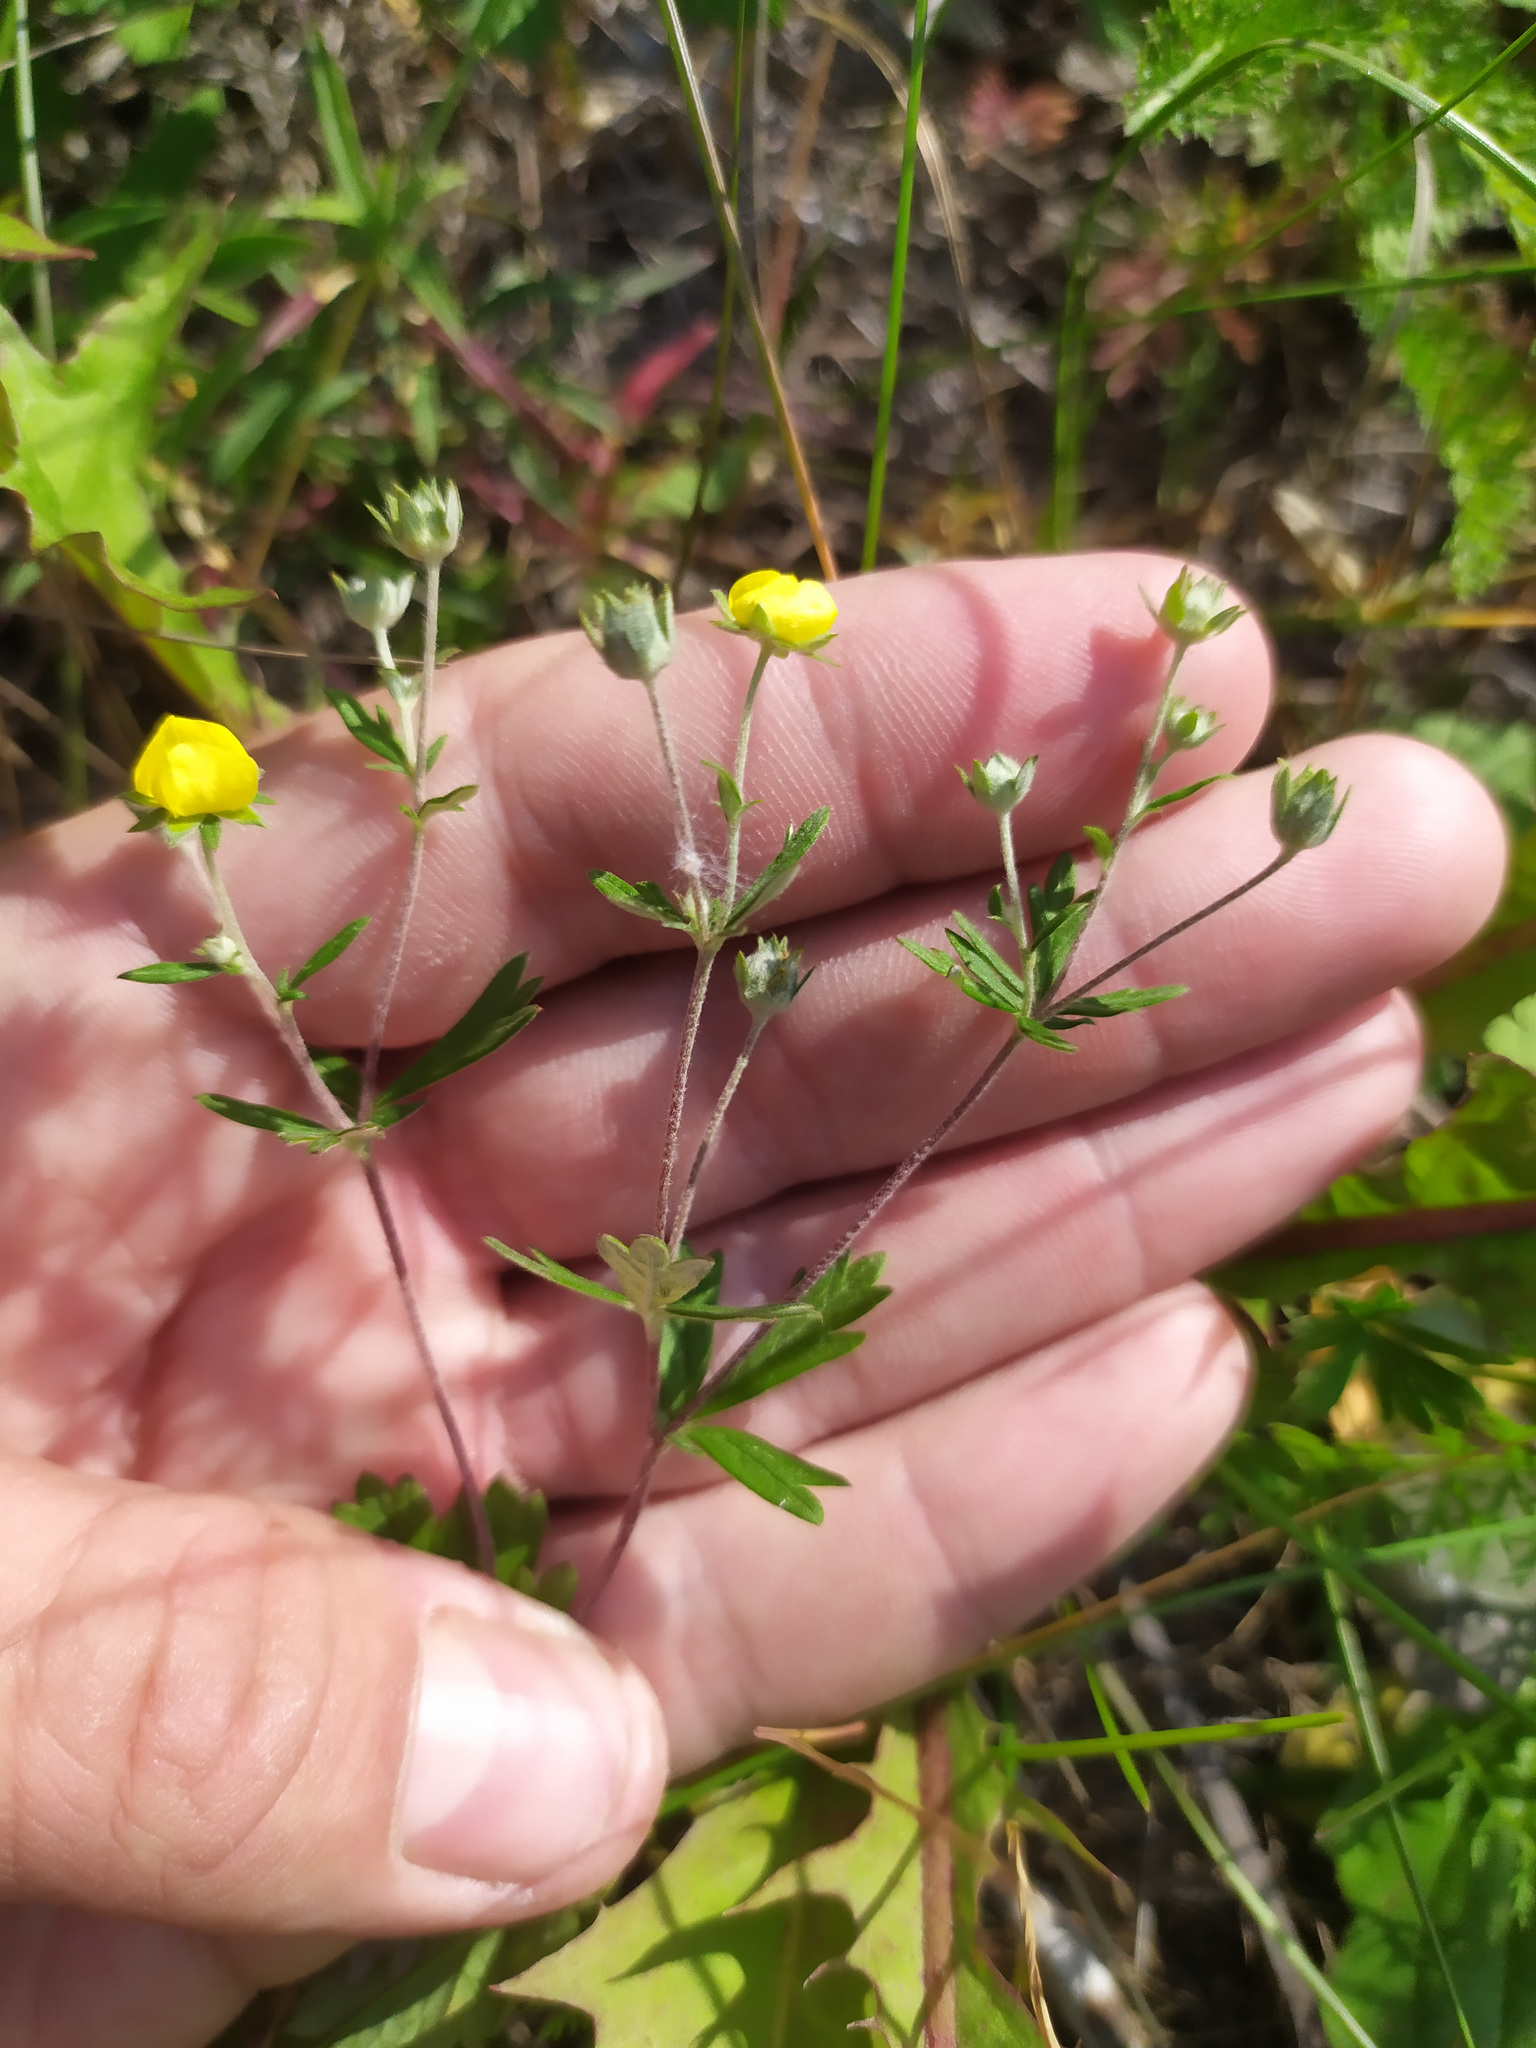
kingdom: Plantae
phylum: Tracheophyta
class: Magnoliopsida
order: Rosales
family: Rosaceae
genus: Potentilla
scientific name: Potentilla argentea
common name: Hoary cinquefoil
